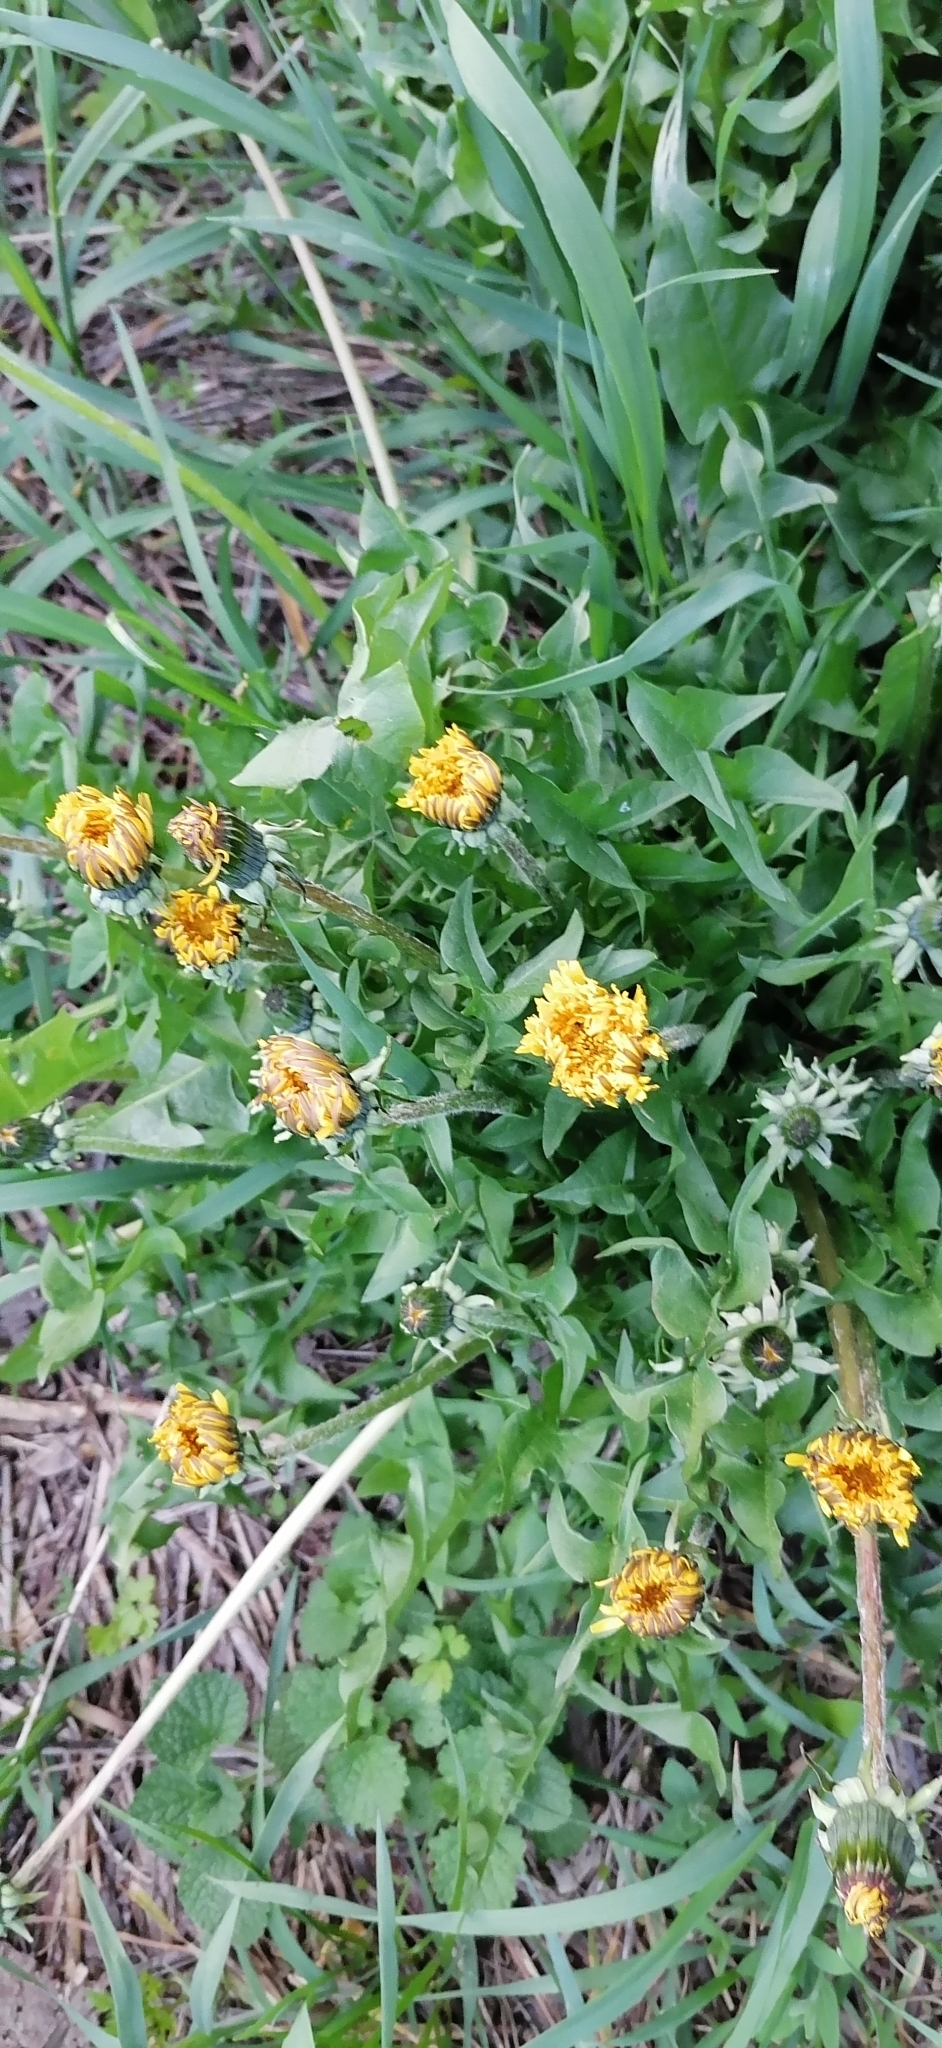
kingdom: Plantae
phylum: Tracheophyta
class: Magnoliopsida
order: Asterales
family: Asteraceae
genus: Taraxacum
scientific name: Taraxacum officinale
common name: Common dandelion
